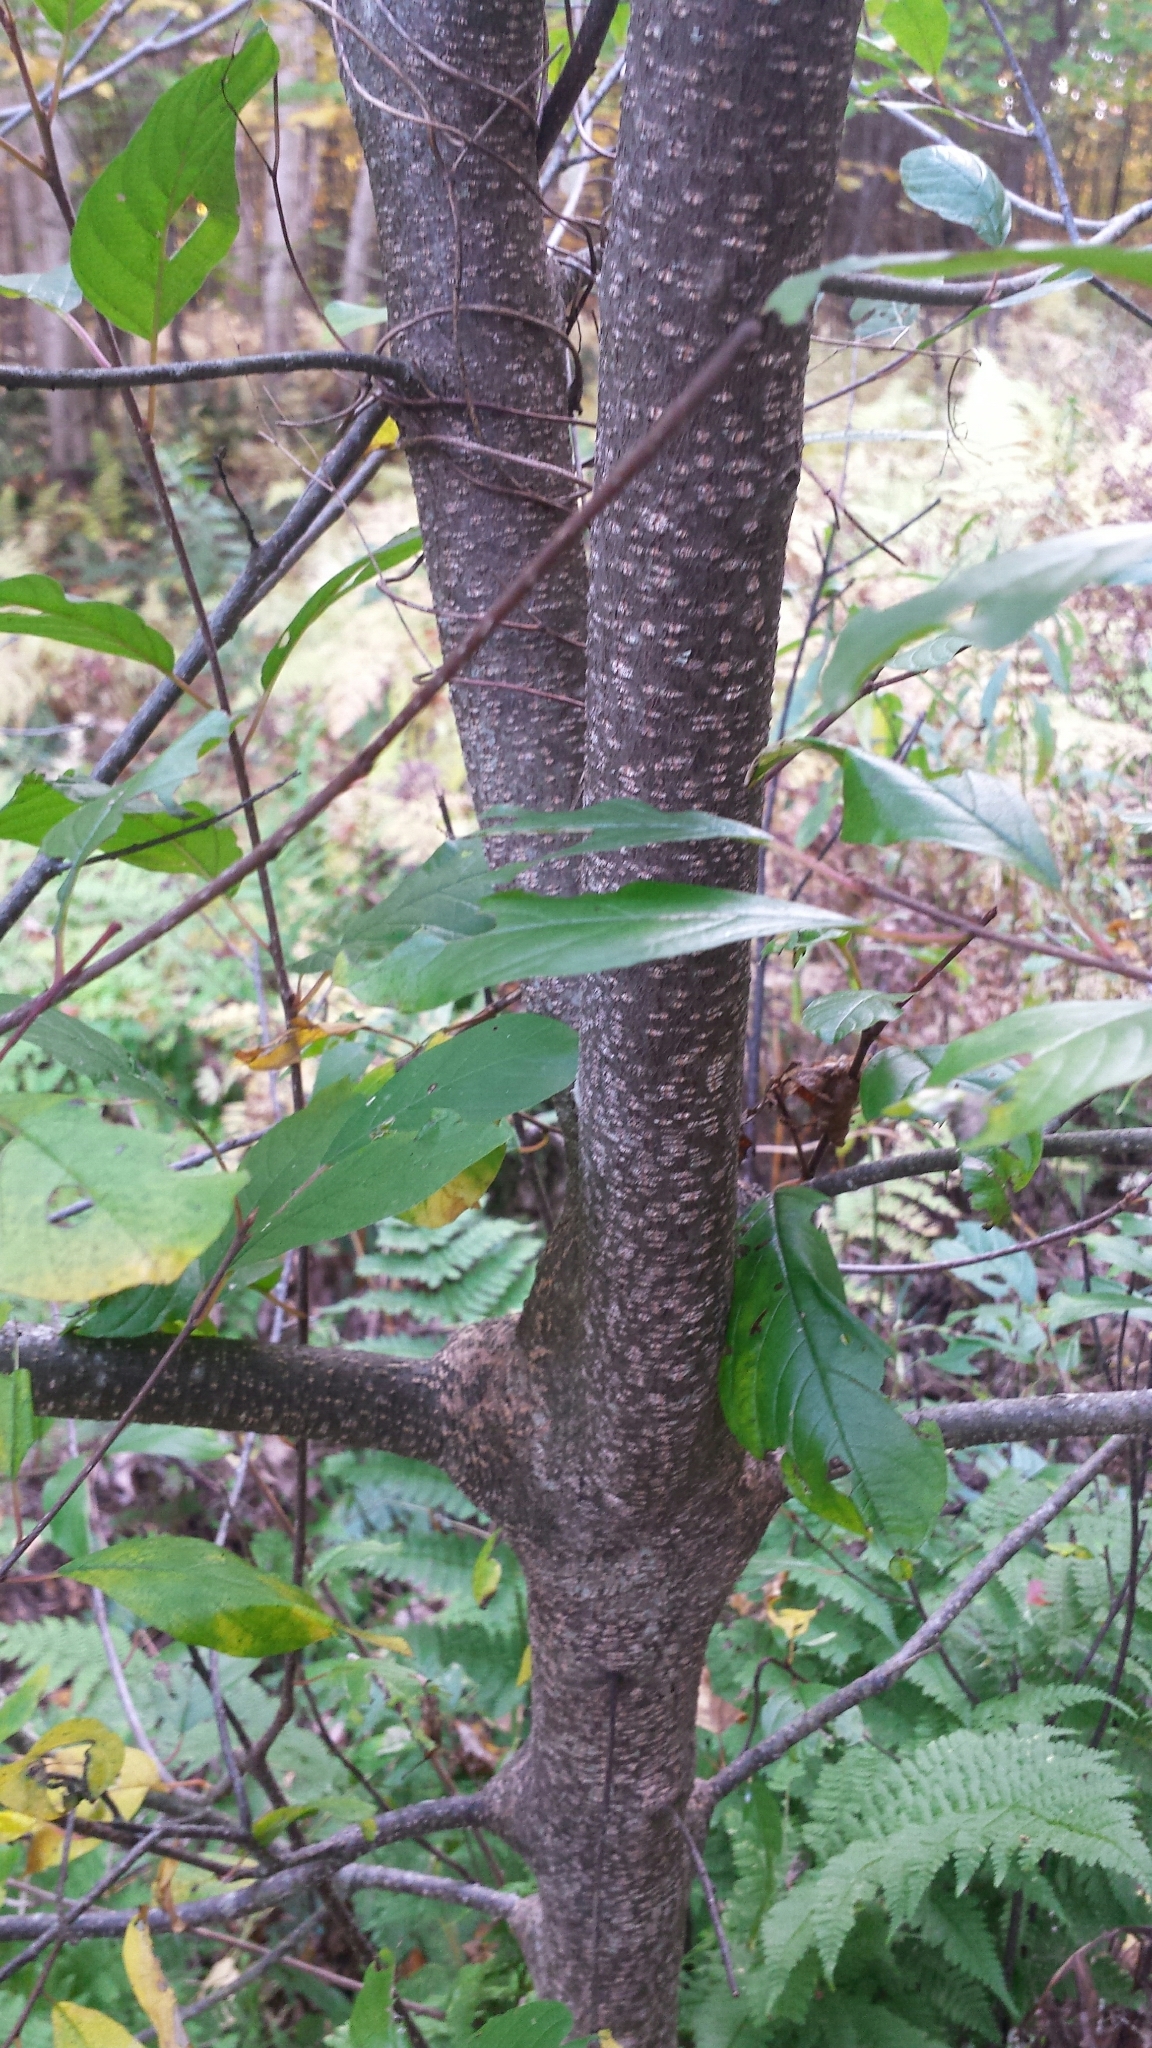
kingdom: Plantae
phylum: Tracheophyta
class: Magnoliopsida
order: Rosales
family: Rhamnaceae
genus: Frangula
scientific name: Frangula alnus
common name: Alder buckthorn
